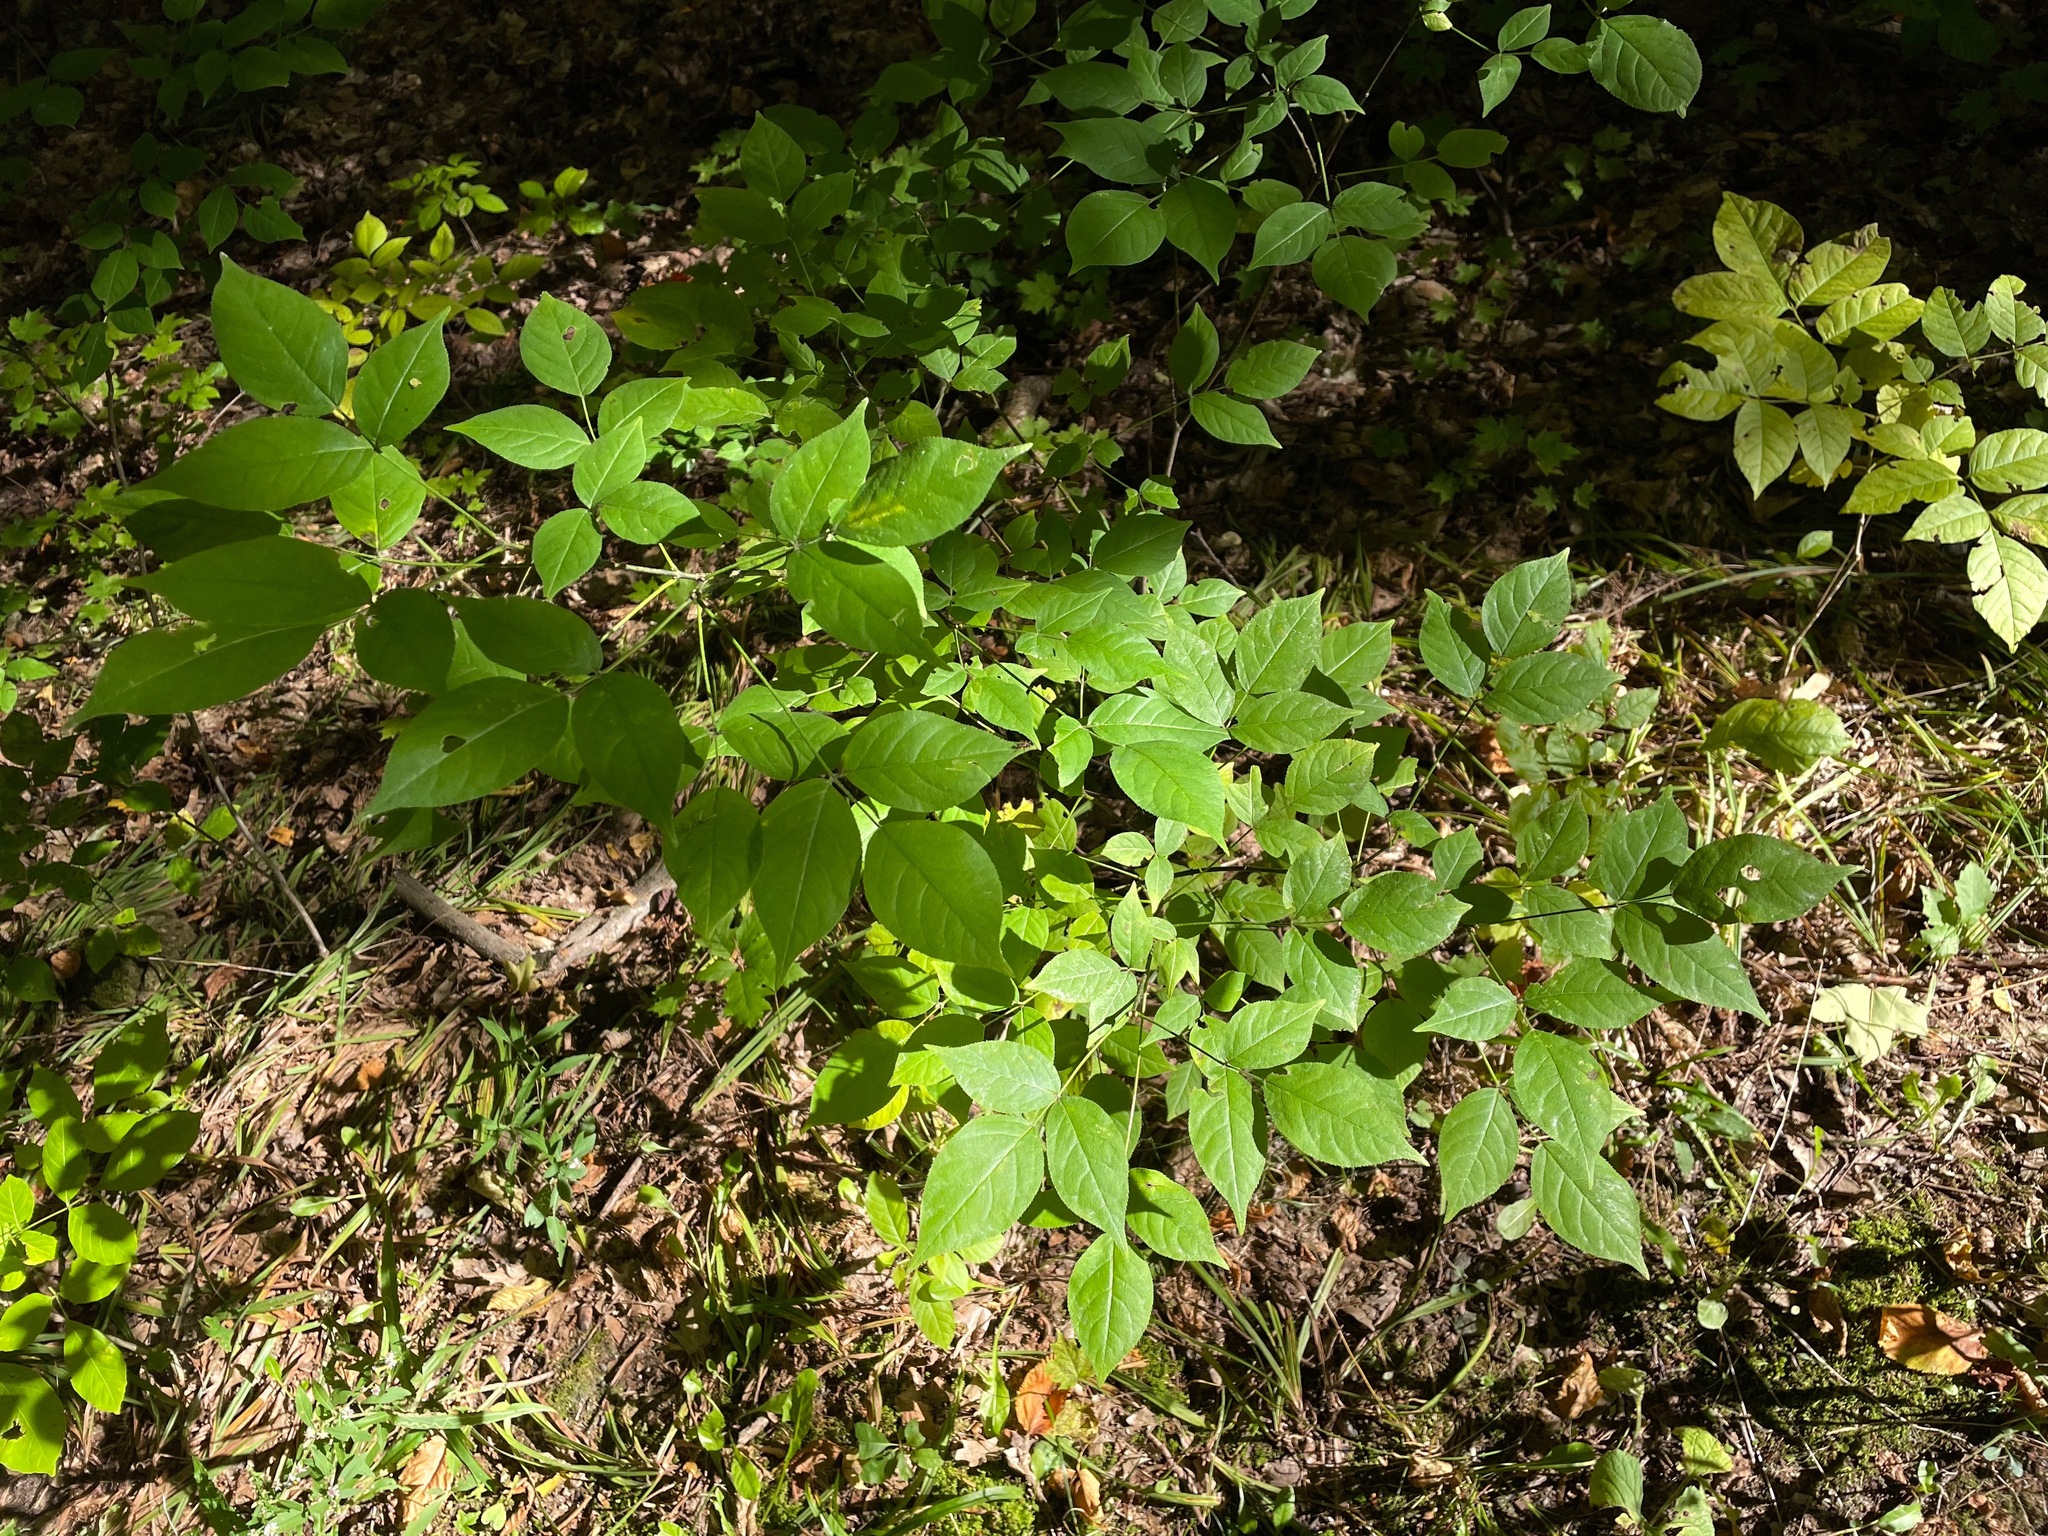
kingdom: Plantae
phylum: Tracheophyta
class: Magnoliopsida
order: Crossosomatales
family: Staphyleaceae
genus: Staphylea
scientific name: Staphylea trifolia
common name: American bladdernut
